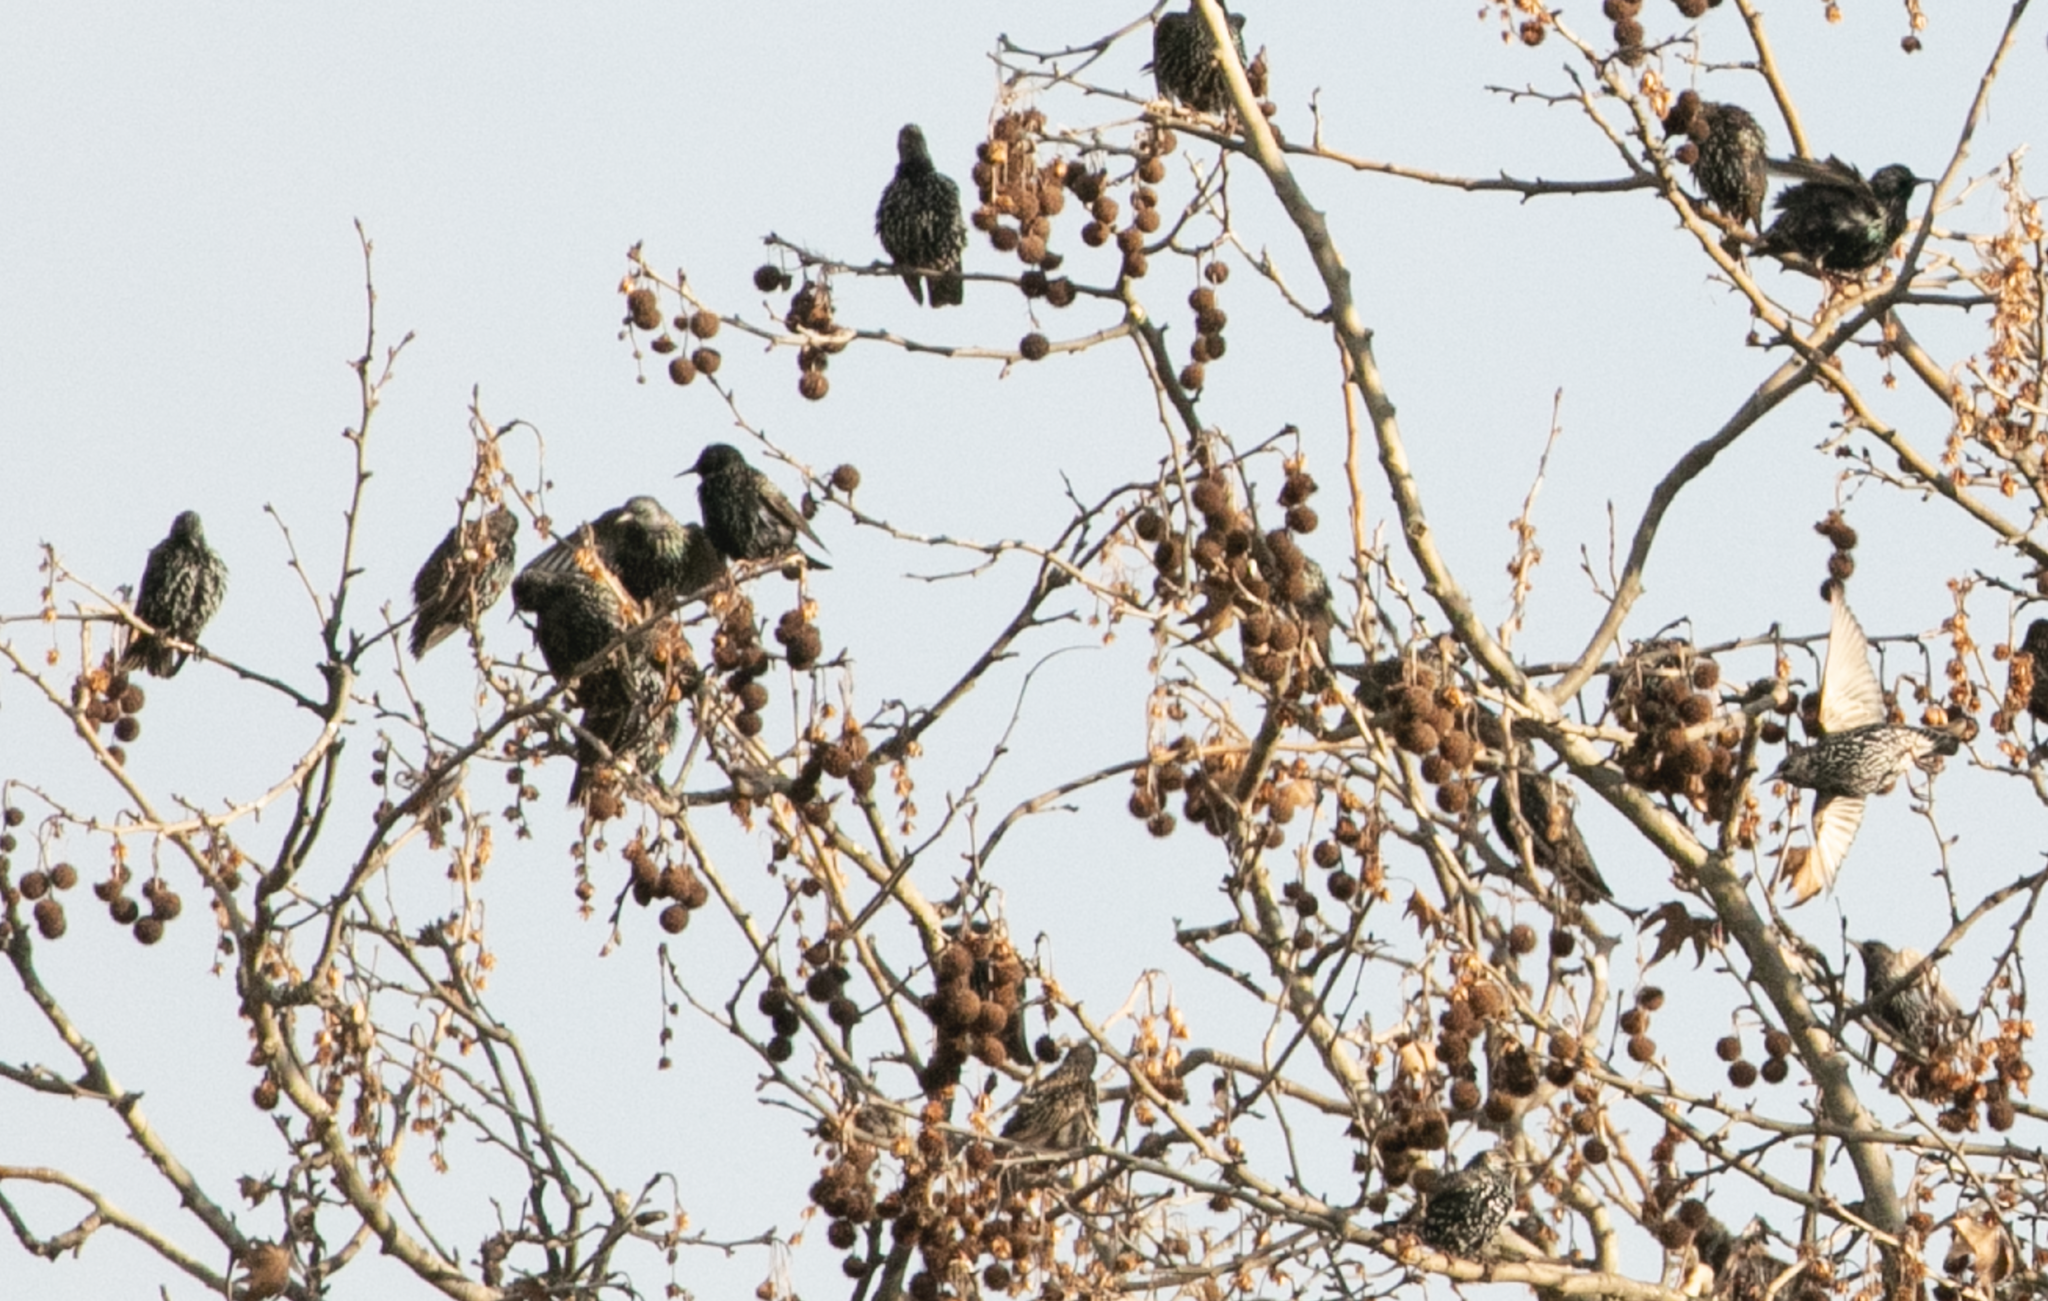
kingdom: Animalia
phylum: Chordata
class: Aves
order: Passeriformes
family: Sturnidae
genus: Sturnus
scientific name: Sturnus vulgaris
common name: Common starling
